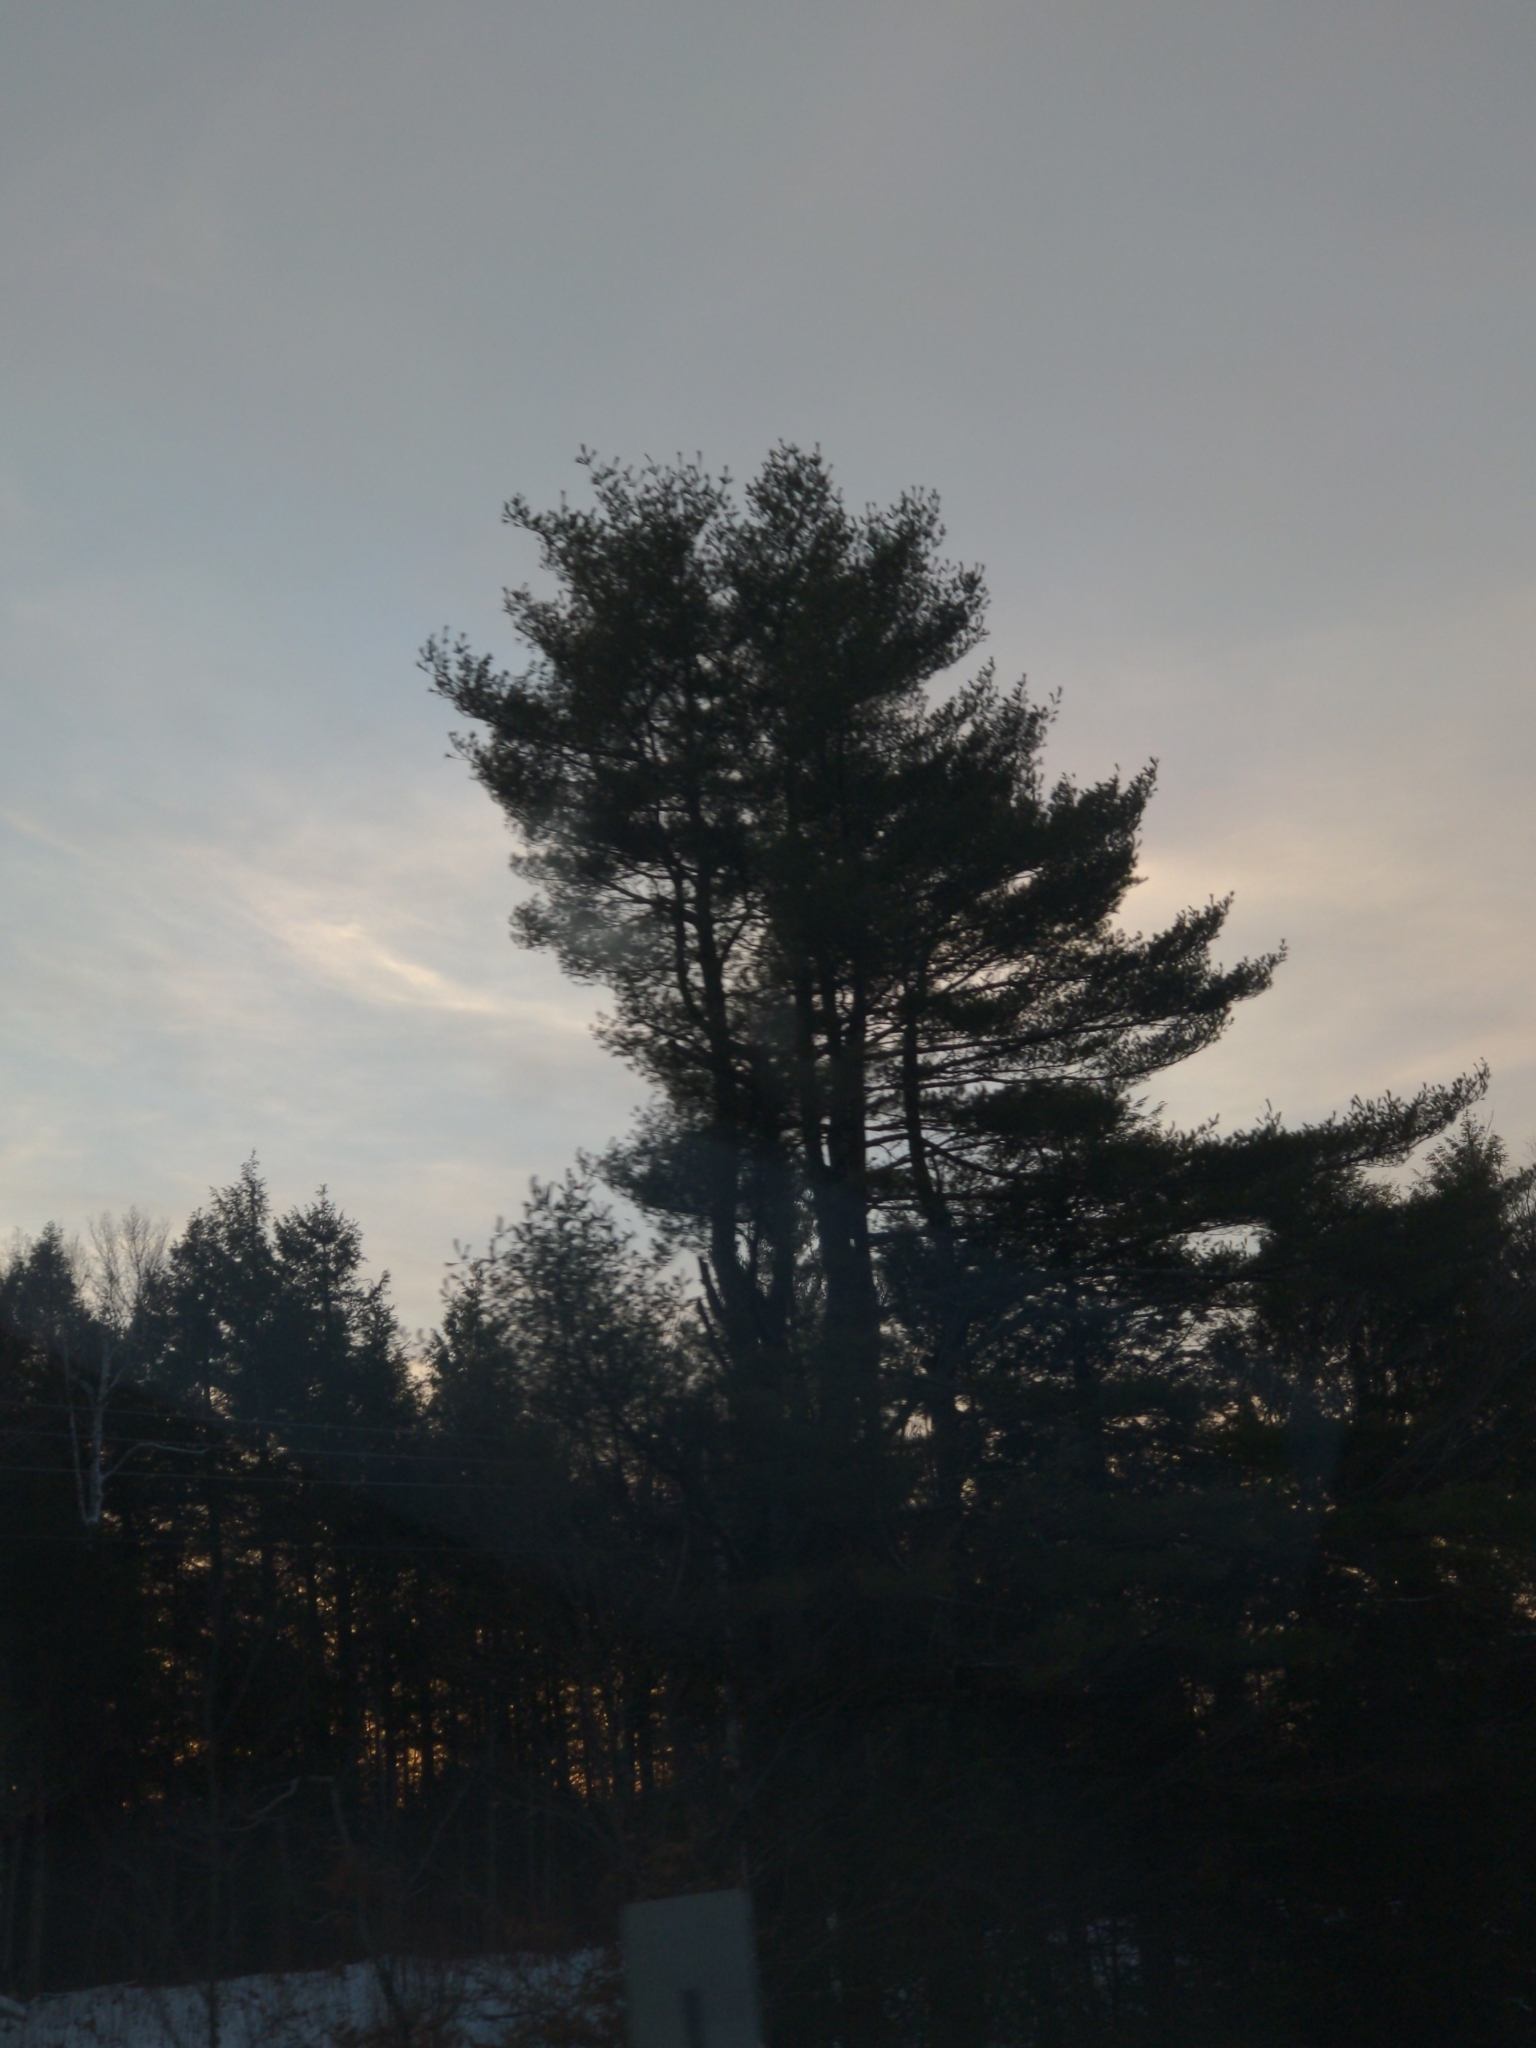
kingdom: Plantae
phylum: Tracheophyta
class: Pinopsida
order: Pinales
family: Pinaceae
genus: Pinus
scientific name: Pinus strobus
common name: Weymouth pine
